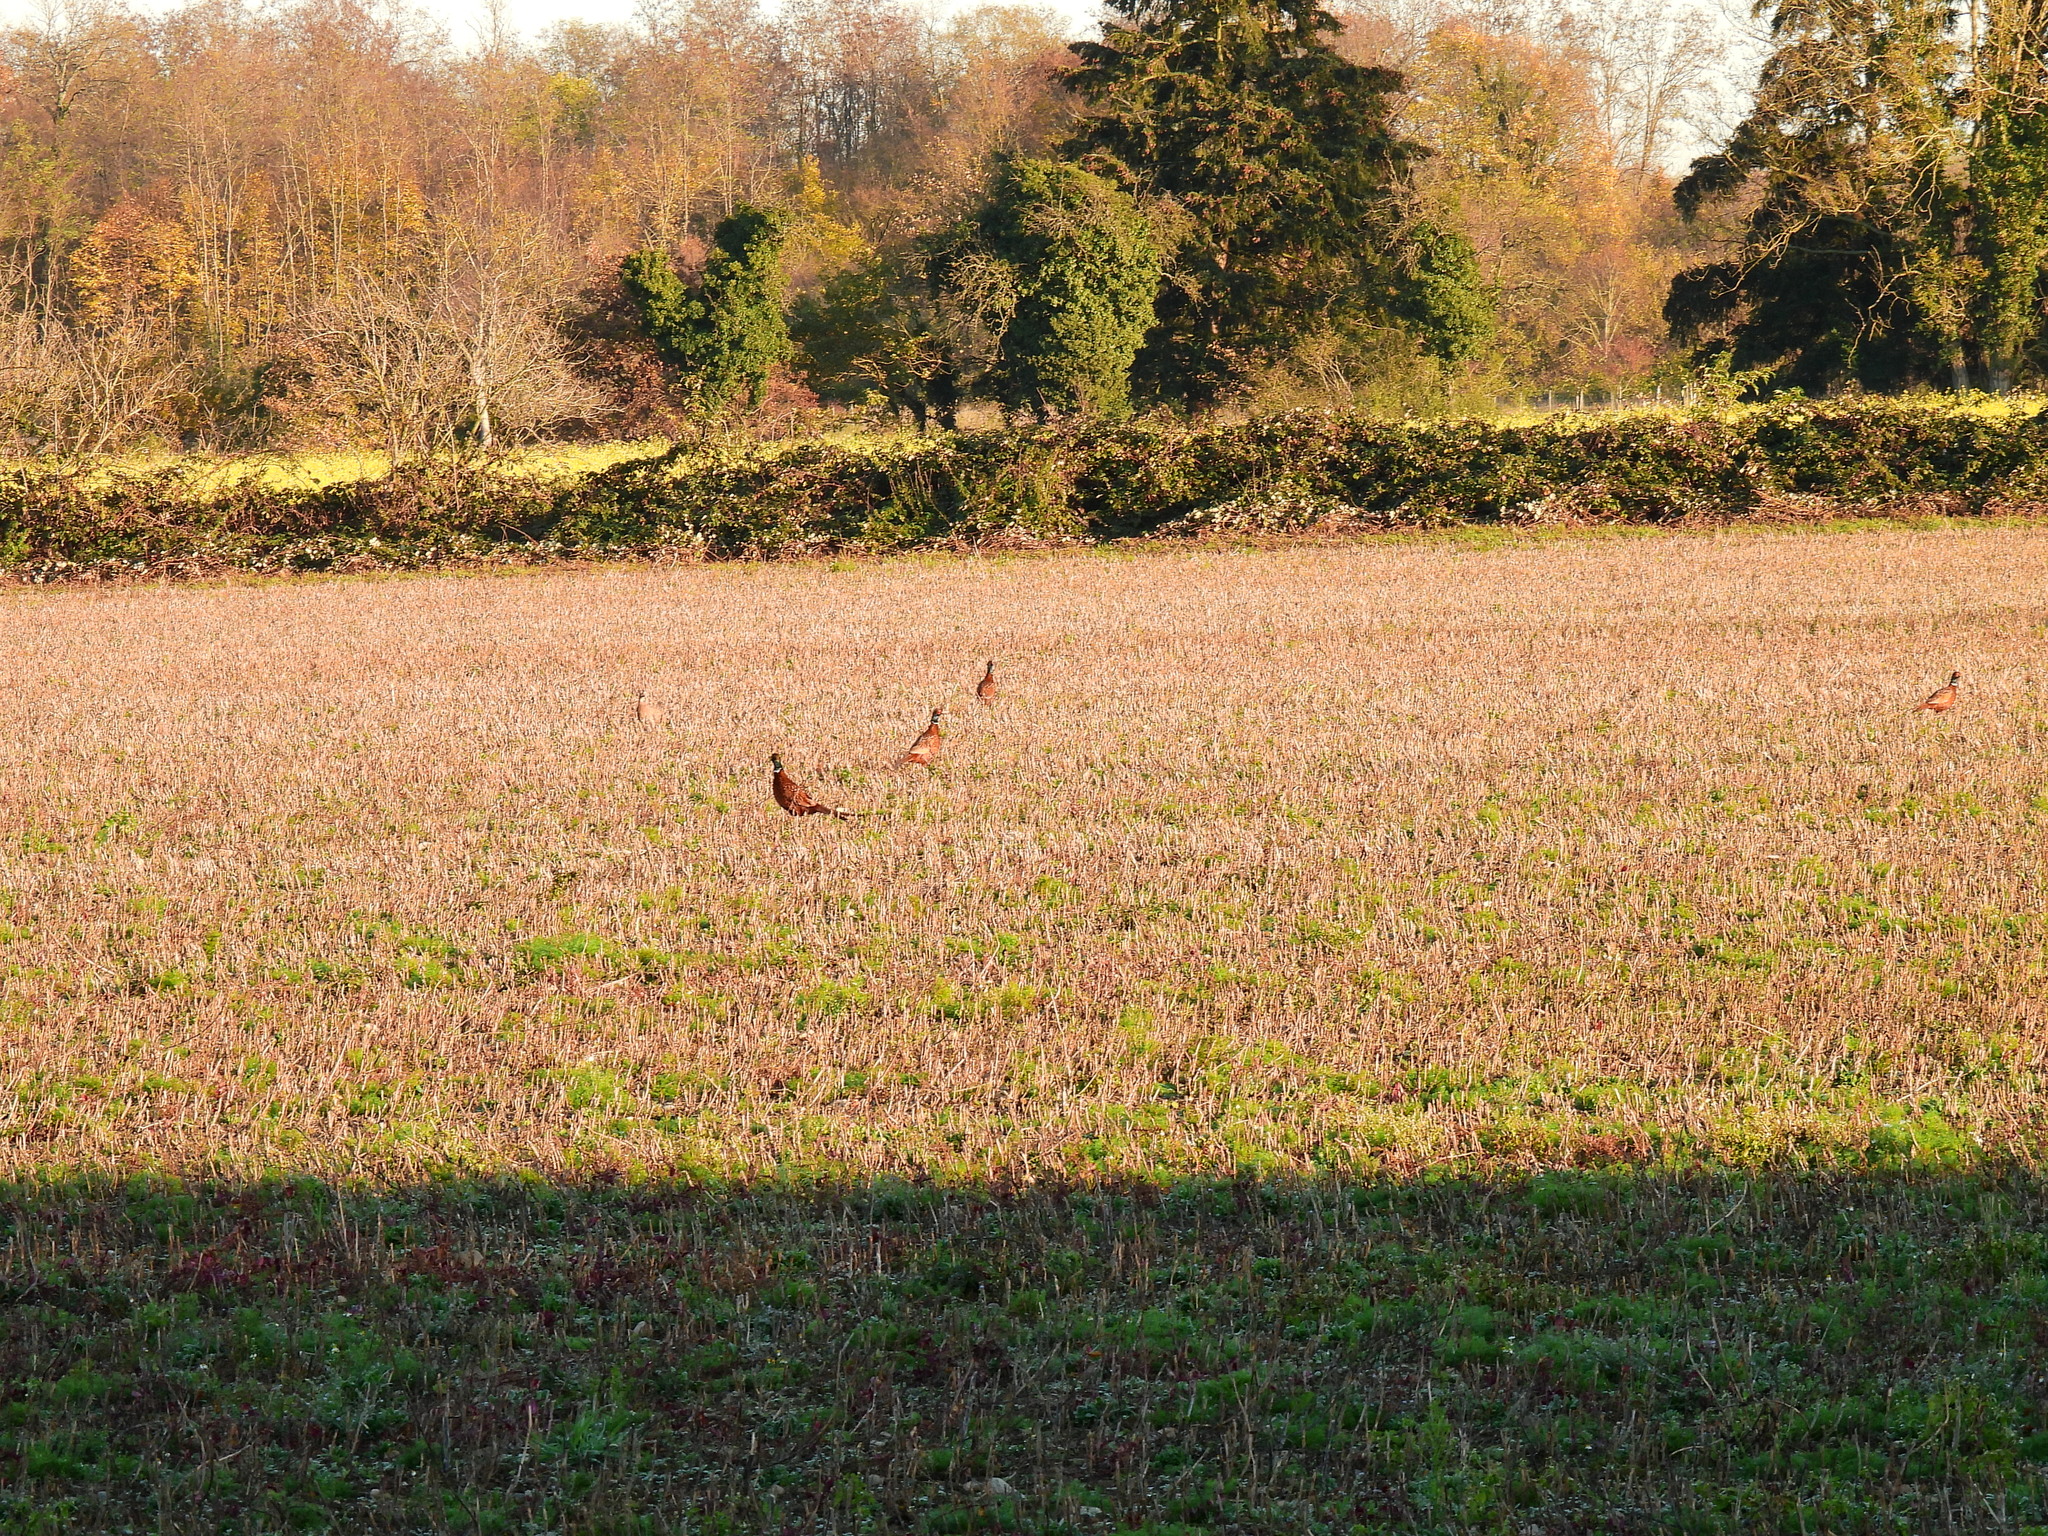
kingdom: Animalia
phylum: Chordata
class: Aves
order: Galliformes
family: Phasianidae
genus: Phasianus
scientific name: Phasianus colchicus
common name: Common pheasant
